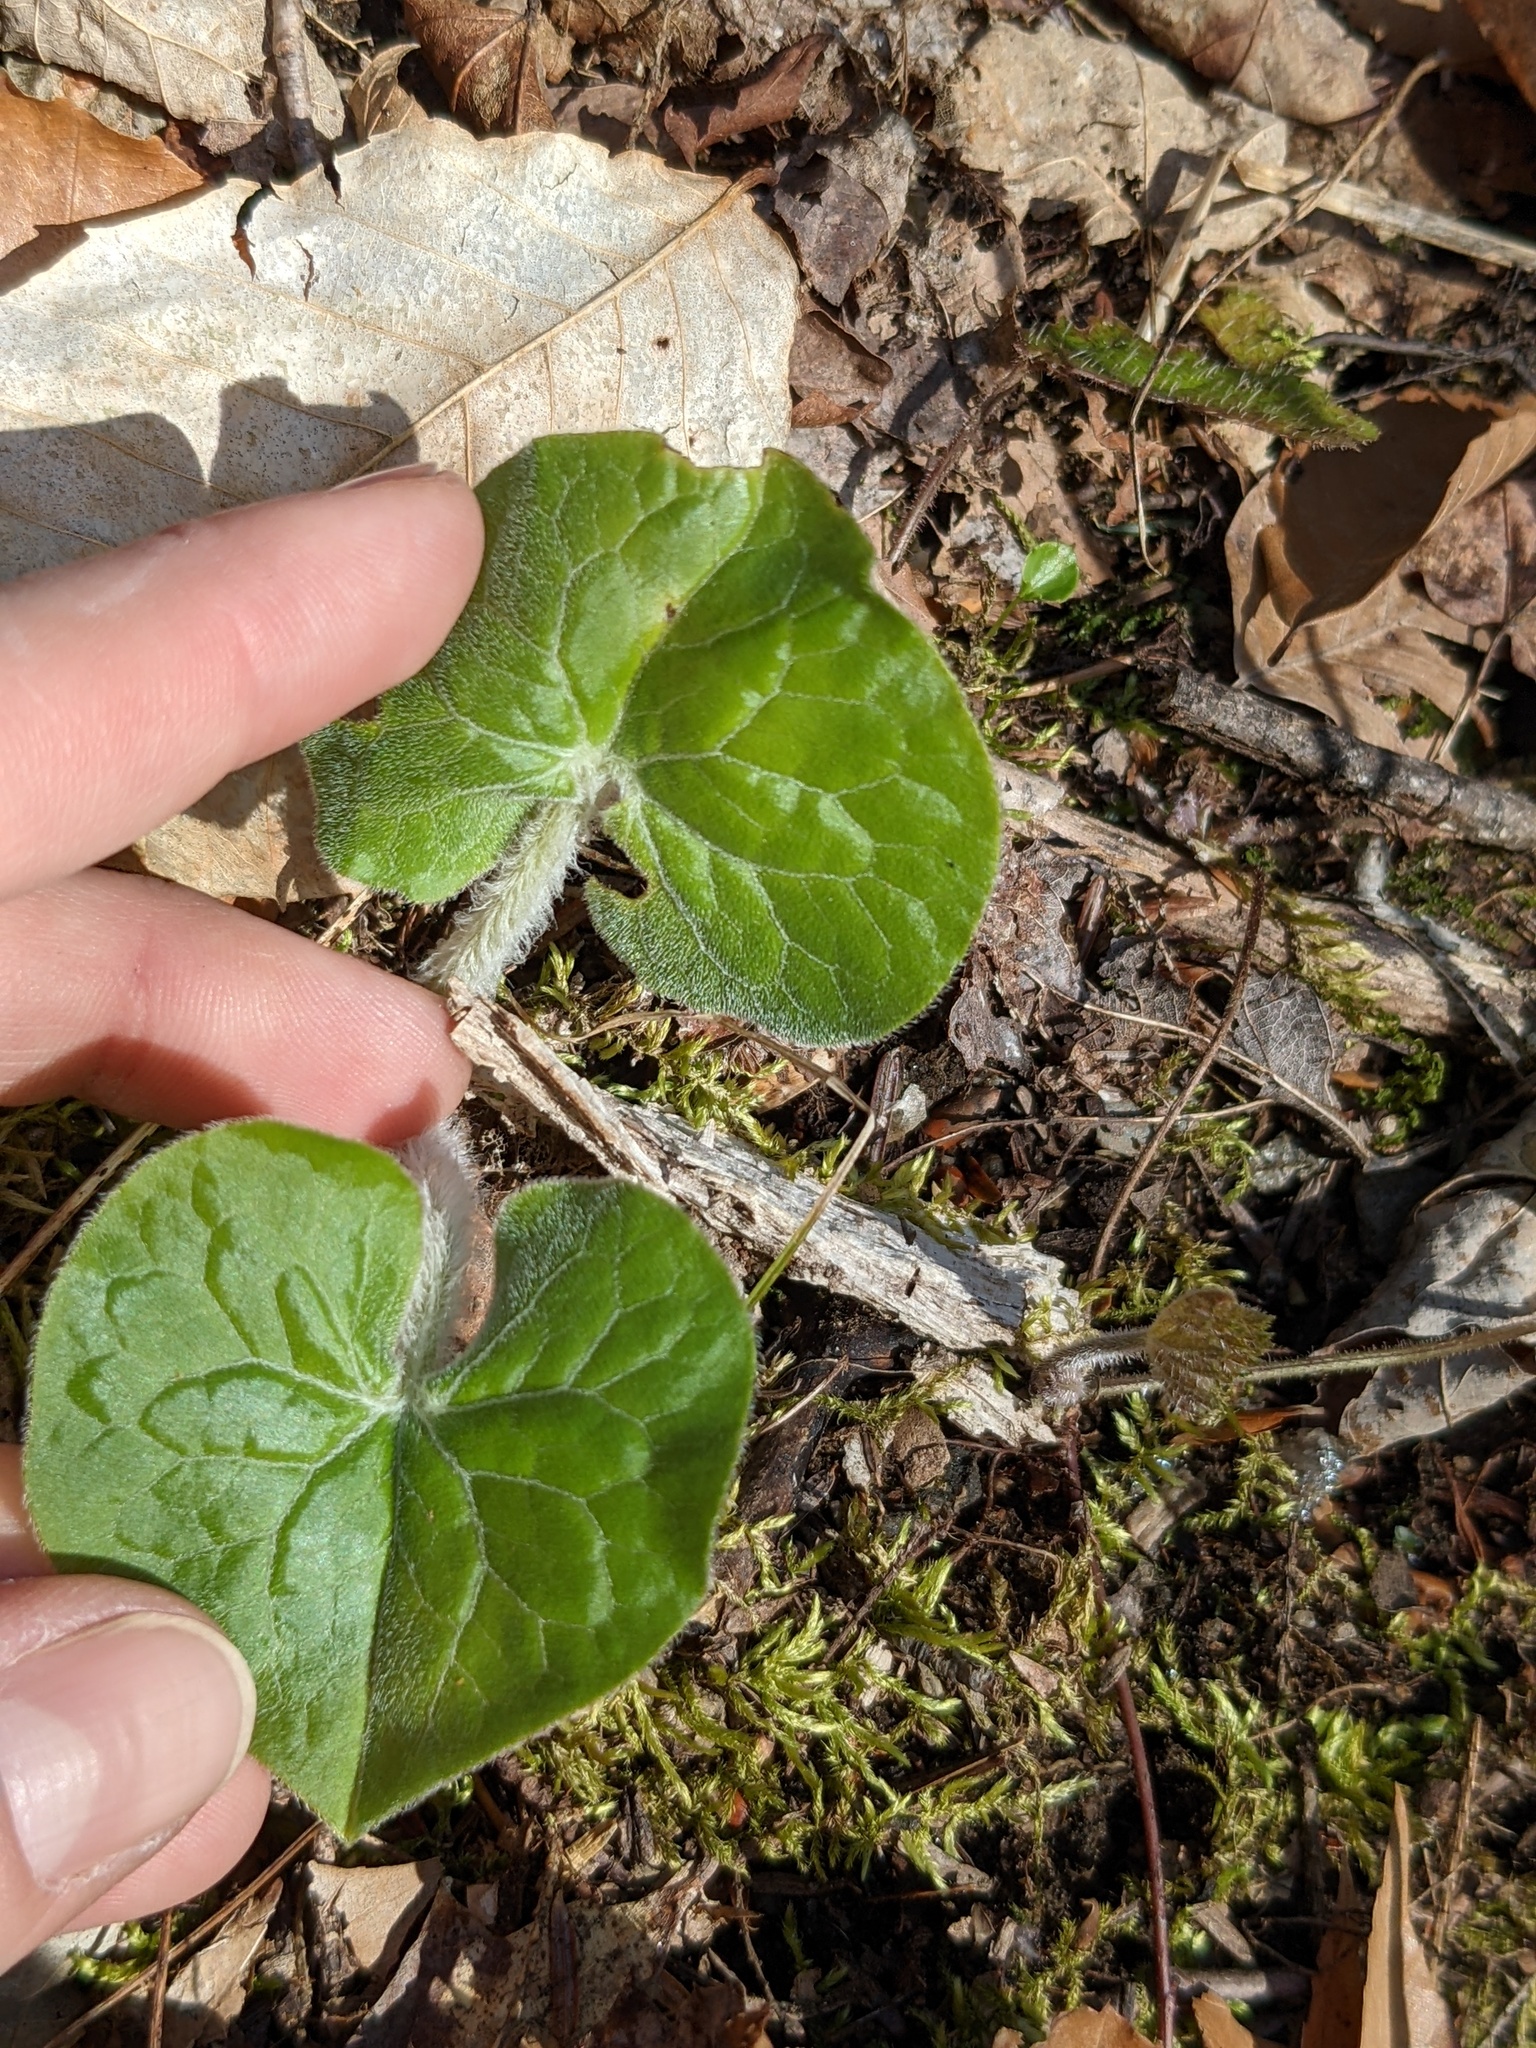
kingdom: Plantae
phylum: Tracheophyta
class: Magnoliopsida
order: Piperales
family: Aristolochiaceae
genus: Asarum
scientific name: Asarum canadense
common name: Wild ginger
